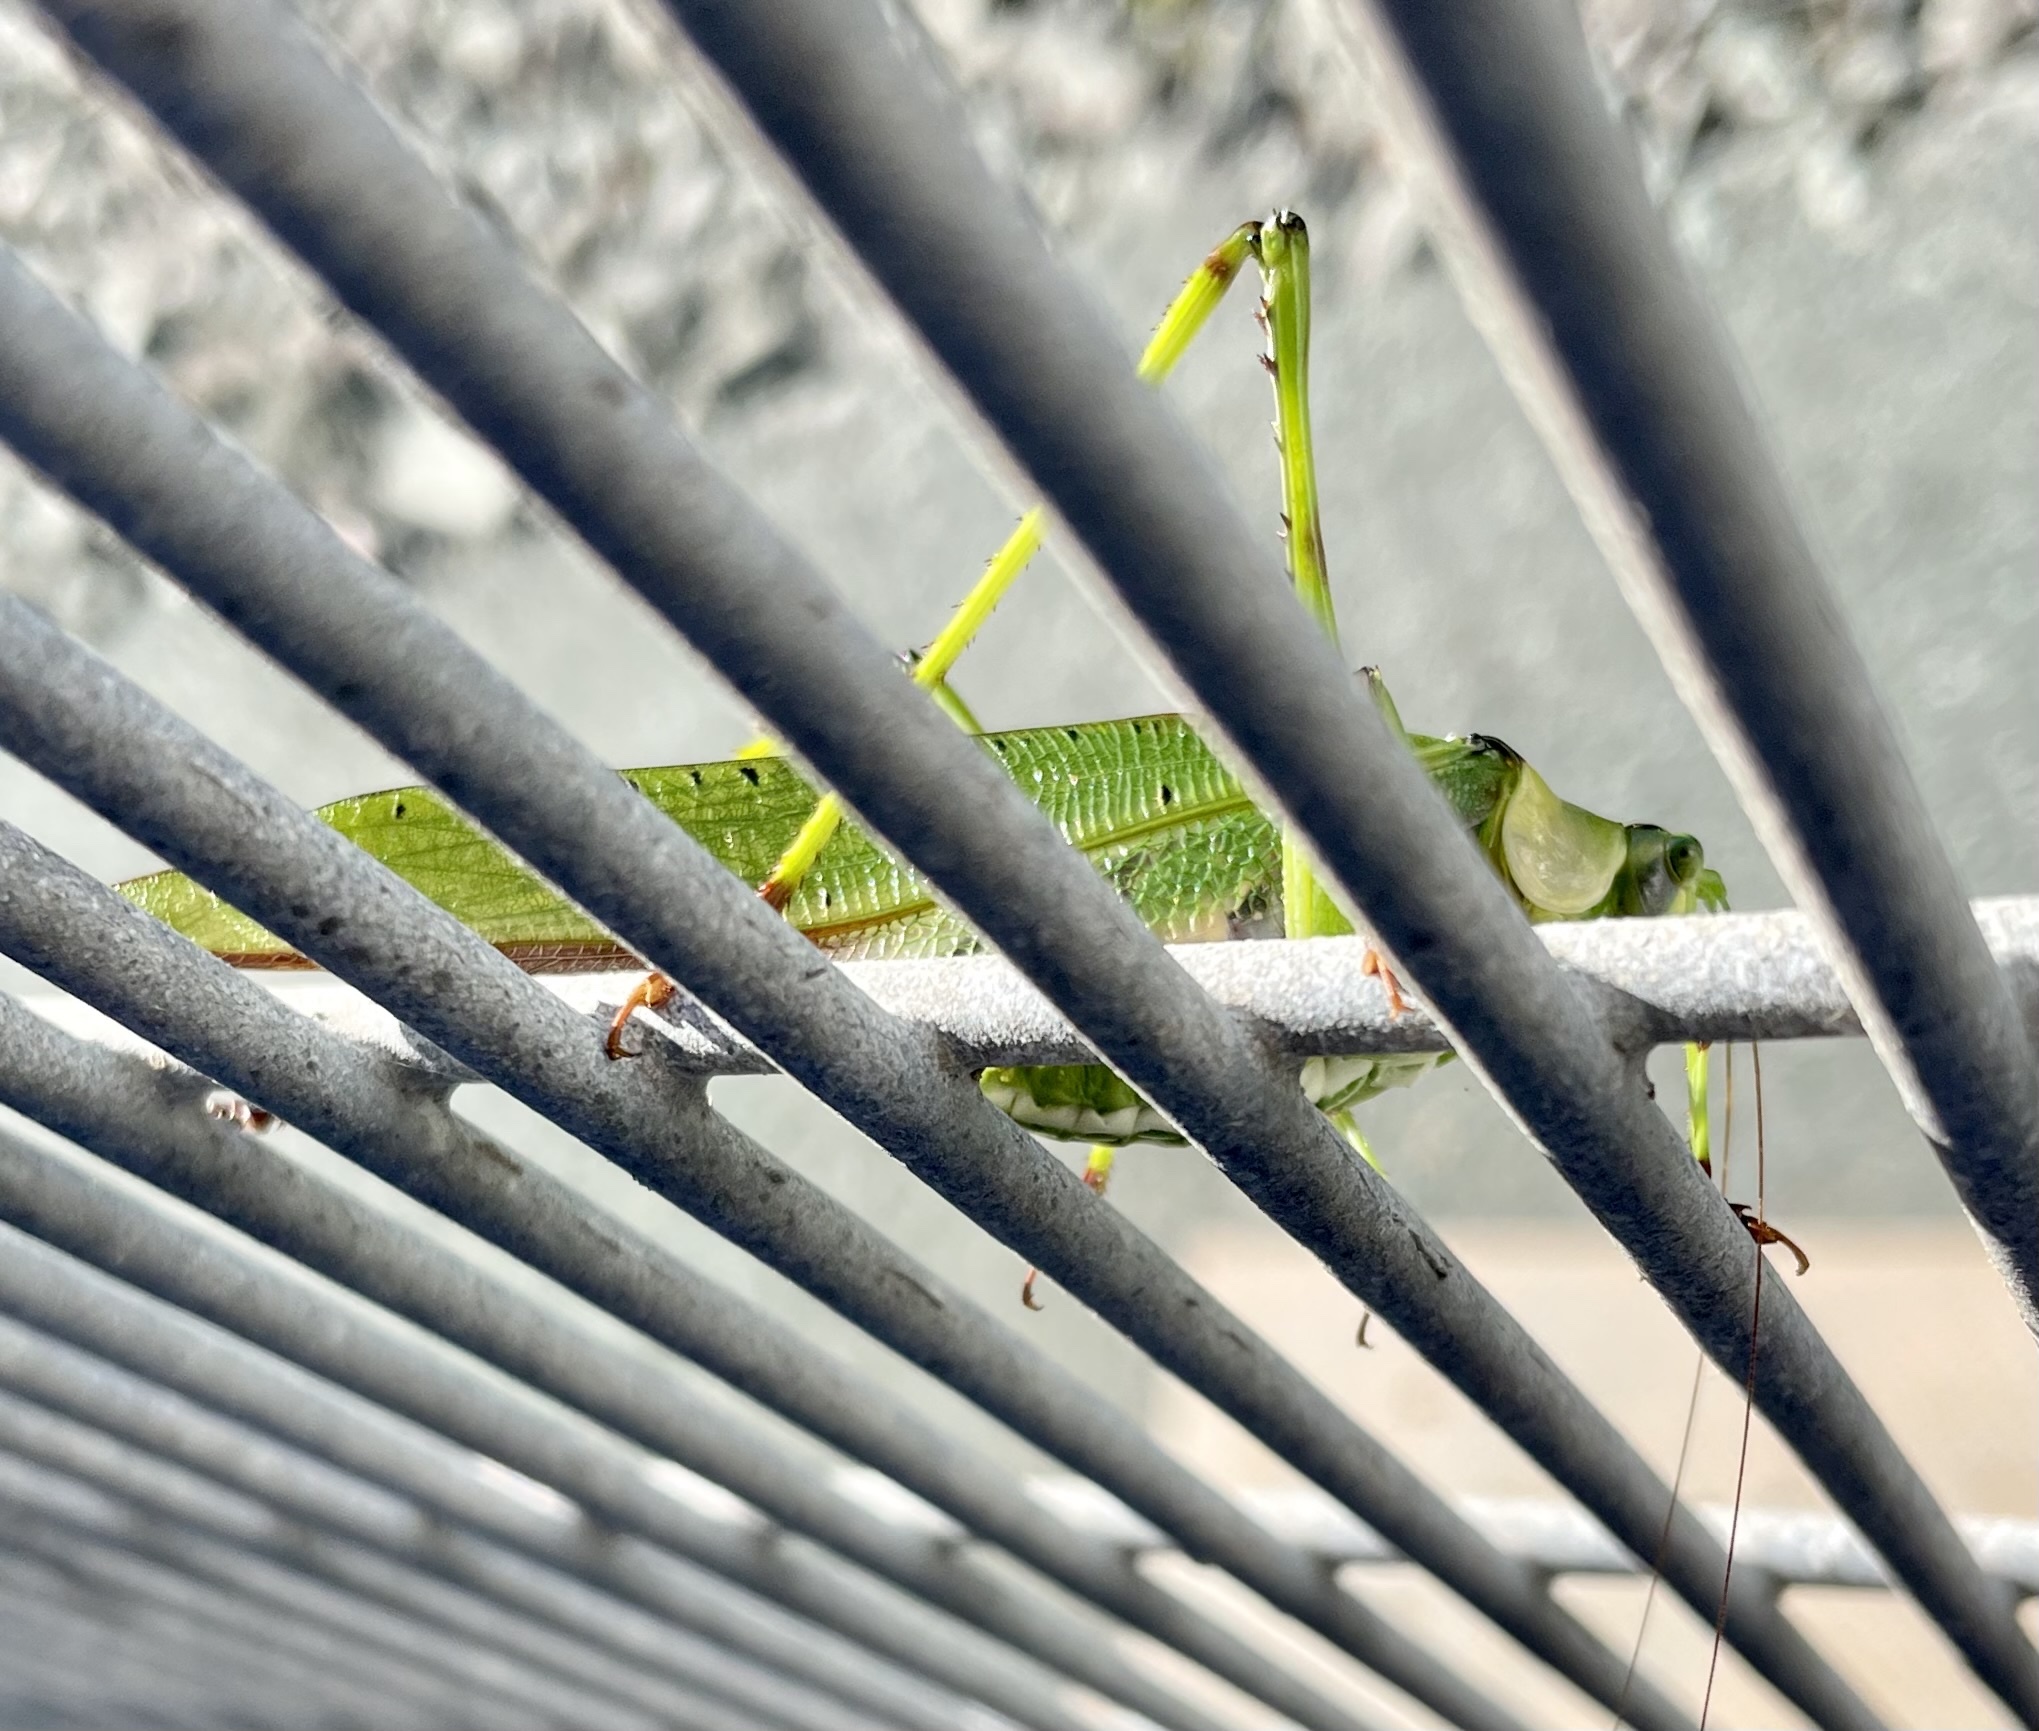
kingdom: Animalia
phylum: Arthropoda
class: Insecta
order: Orthoptera
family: Tettigoniidae
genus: Ephippitytha
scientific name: Ephippitytha trigintiduoguttata
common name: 32-spotted katydid
